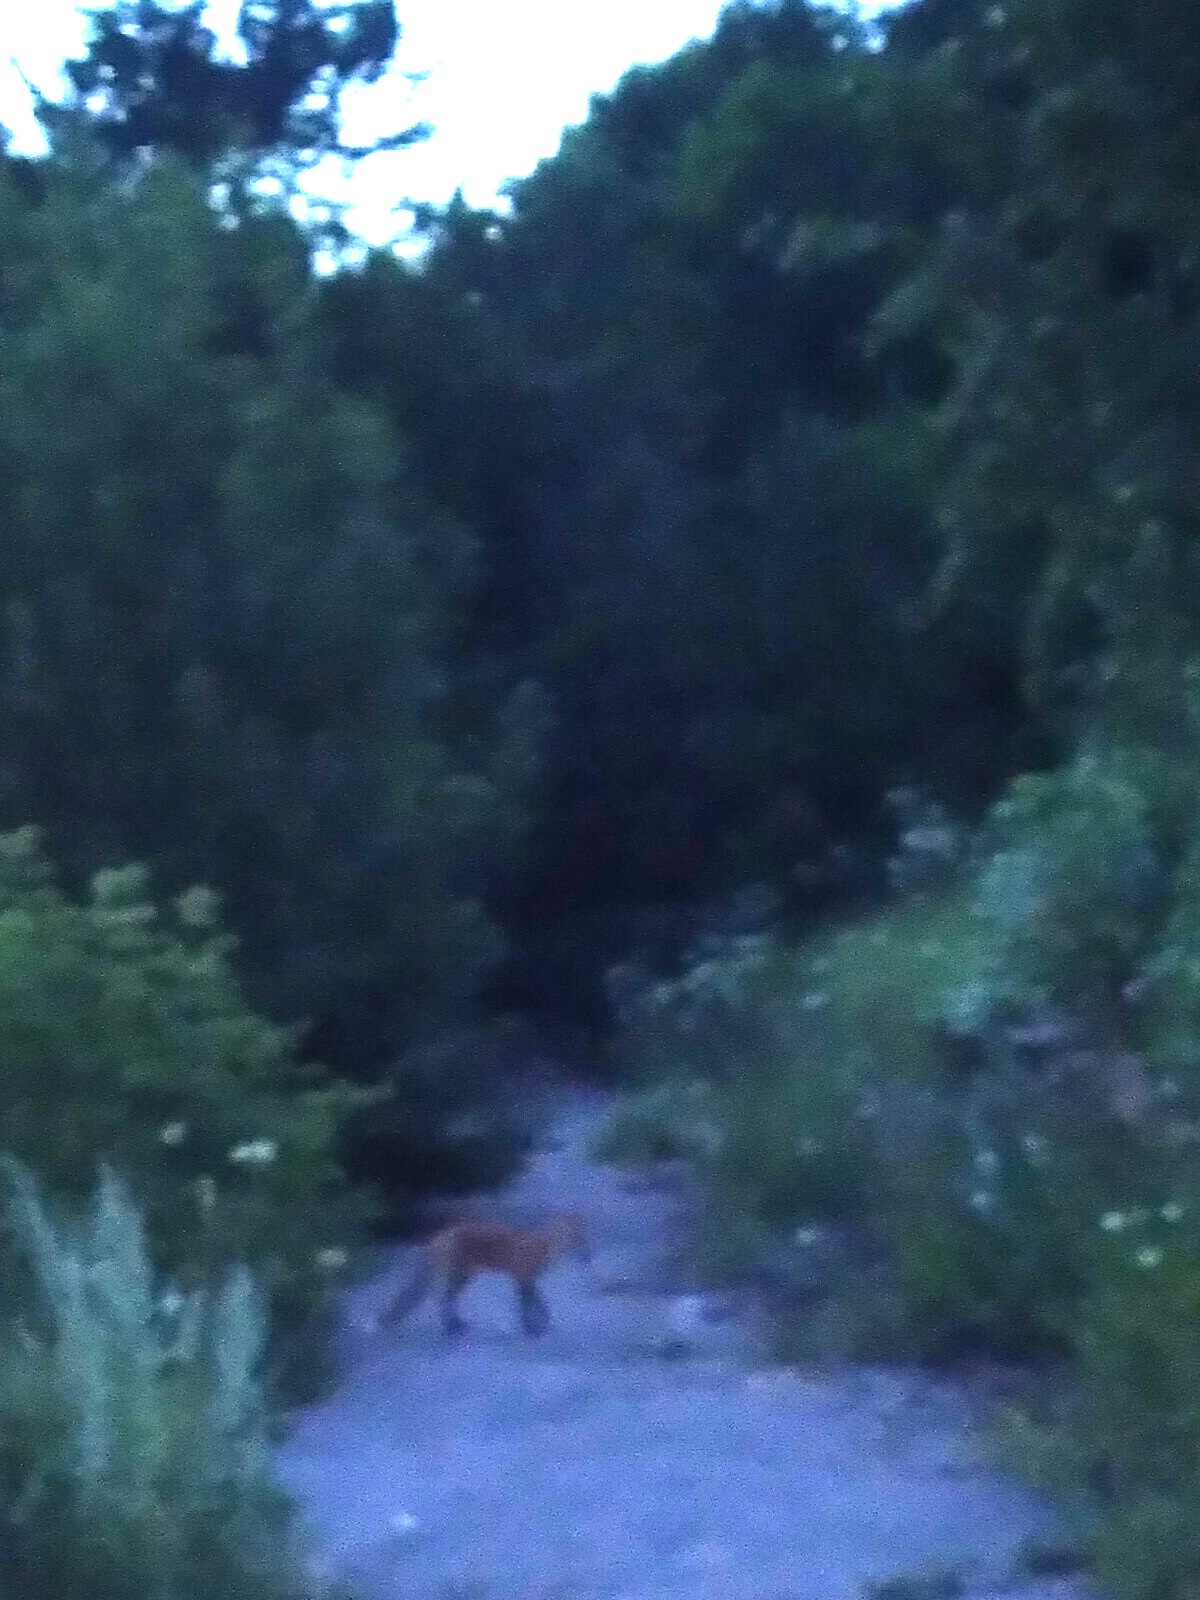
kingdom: Animalia
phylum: Chordata
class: Mammalia
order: Carnivora
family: Canidae
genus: Vulpes
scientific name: Vulpes vulpes
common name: Red fox
